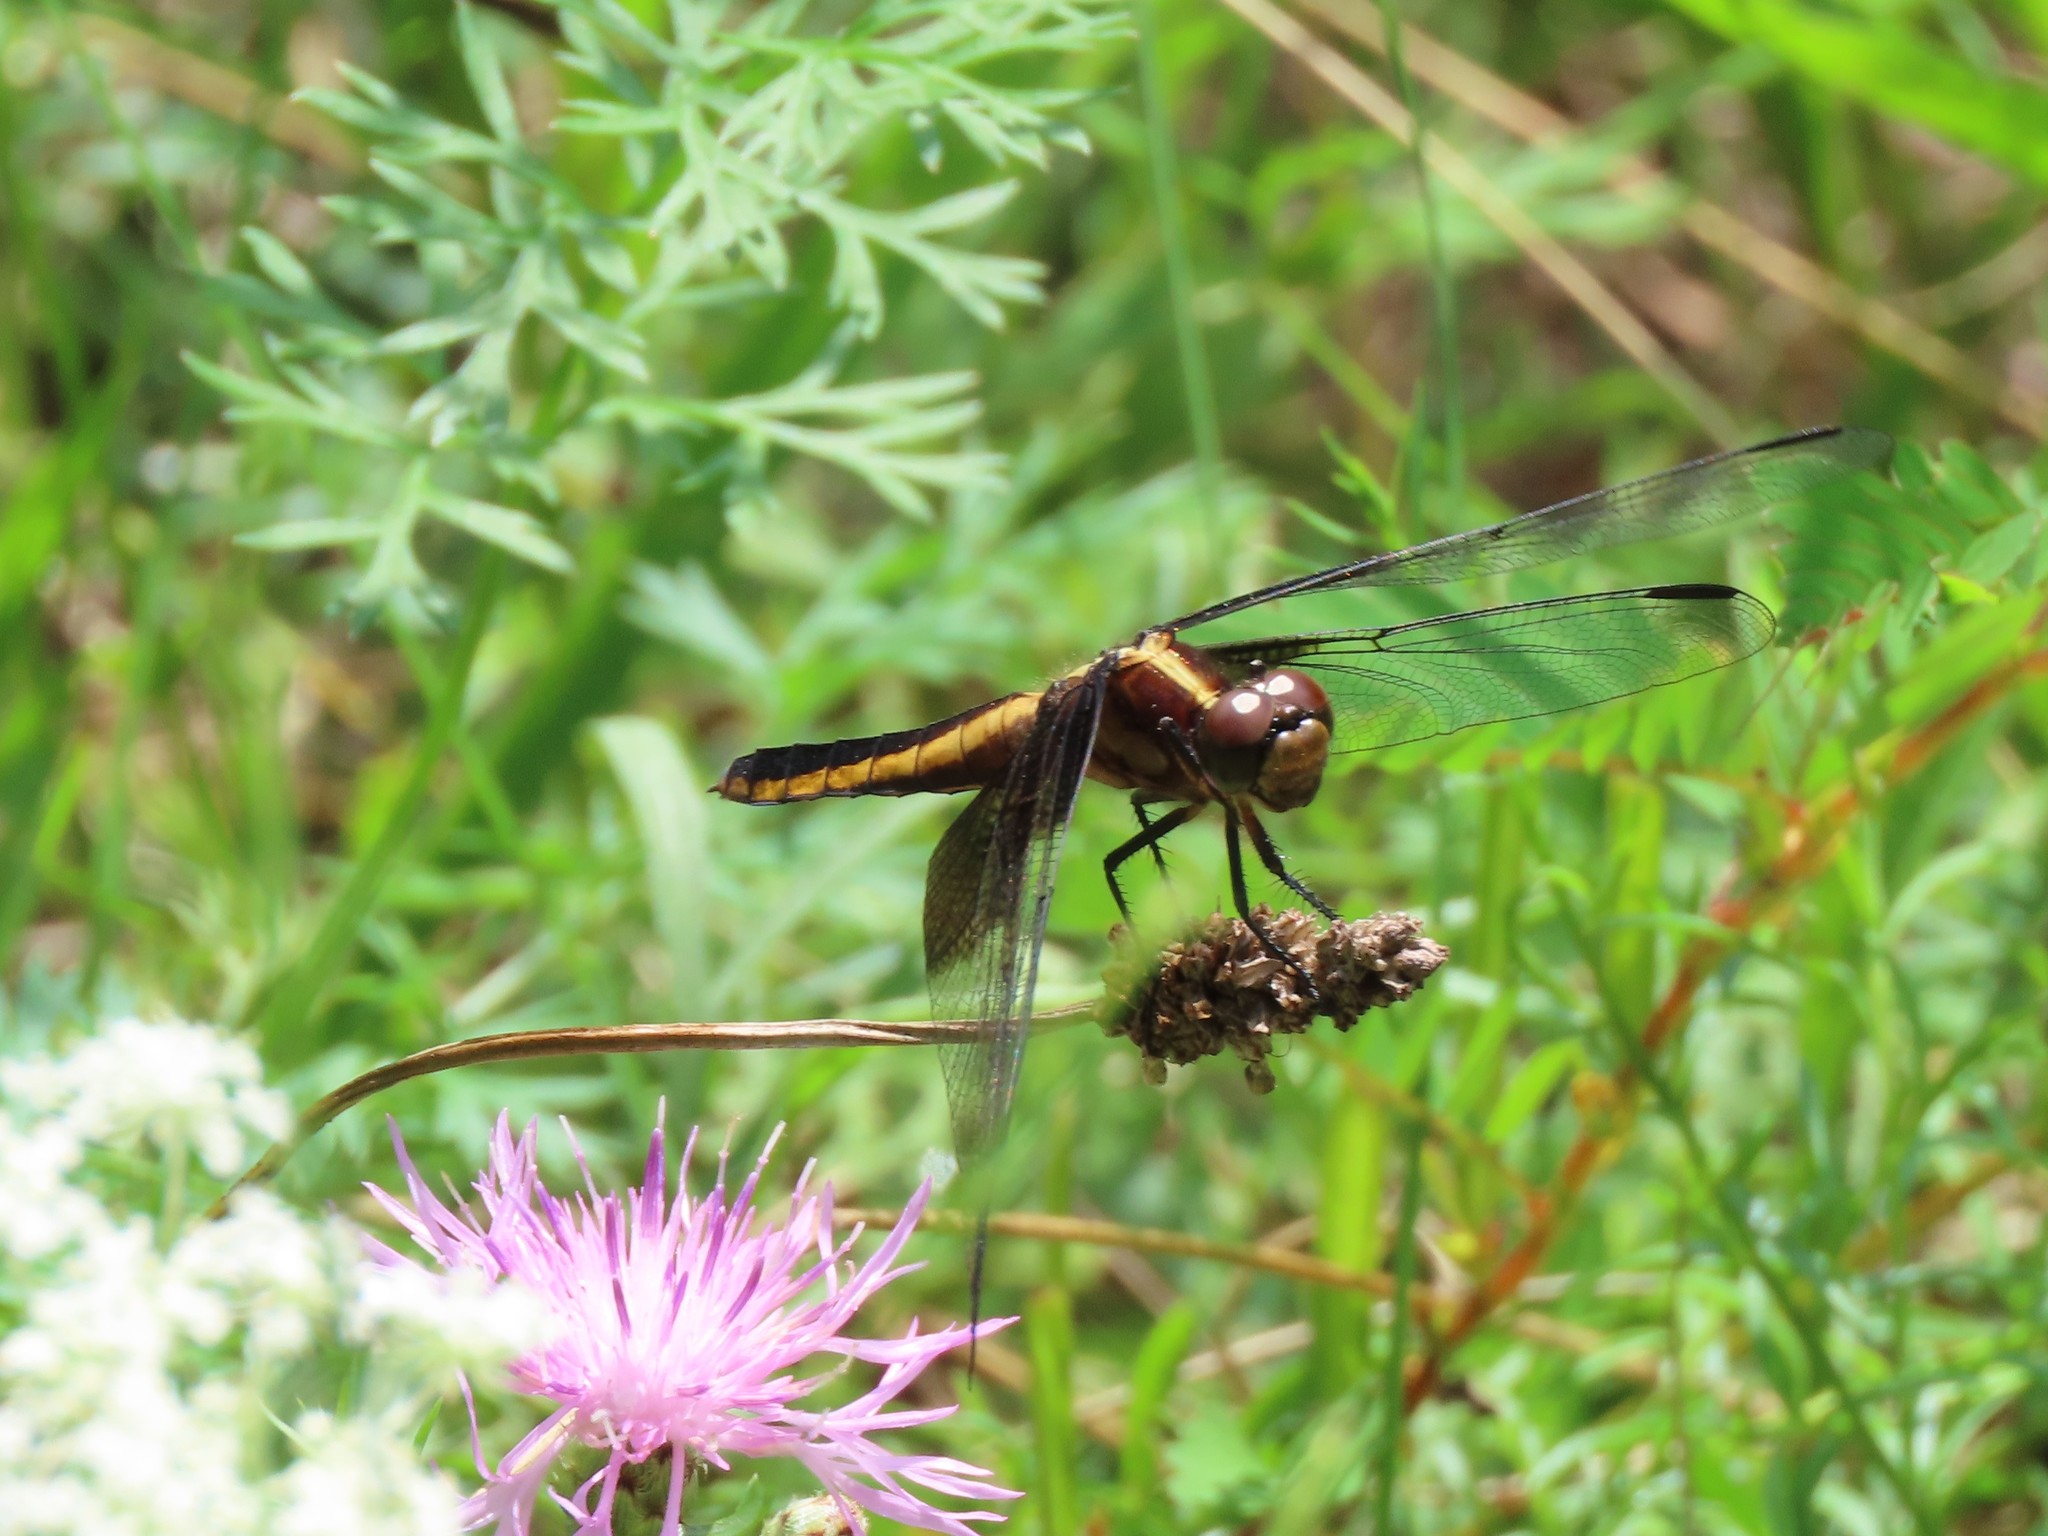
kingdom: Animalia
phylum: Arthropoda
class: Insecta
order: Odonata
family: Libellulidae
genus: Libellula
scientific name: Libellula luctuosa
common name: Widow skimmer
